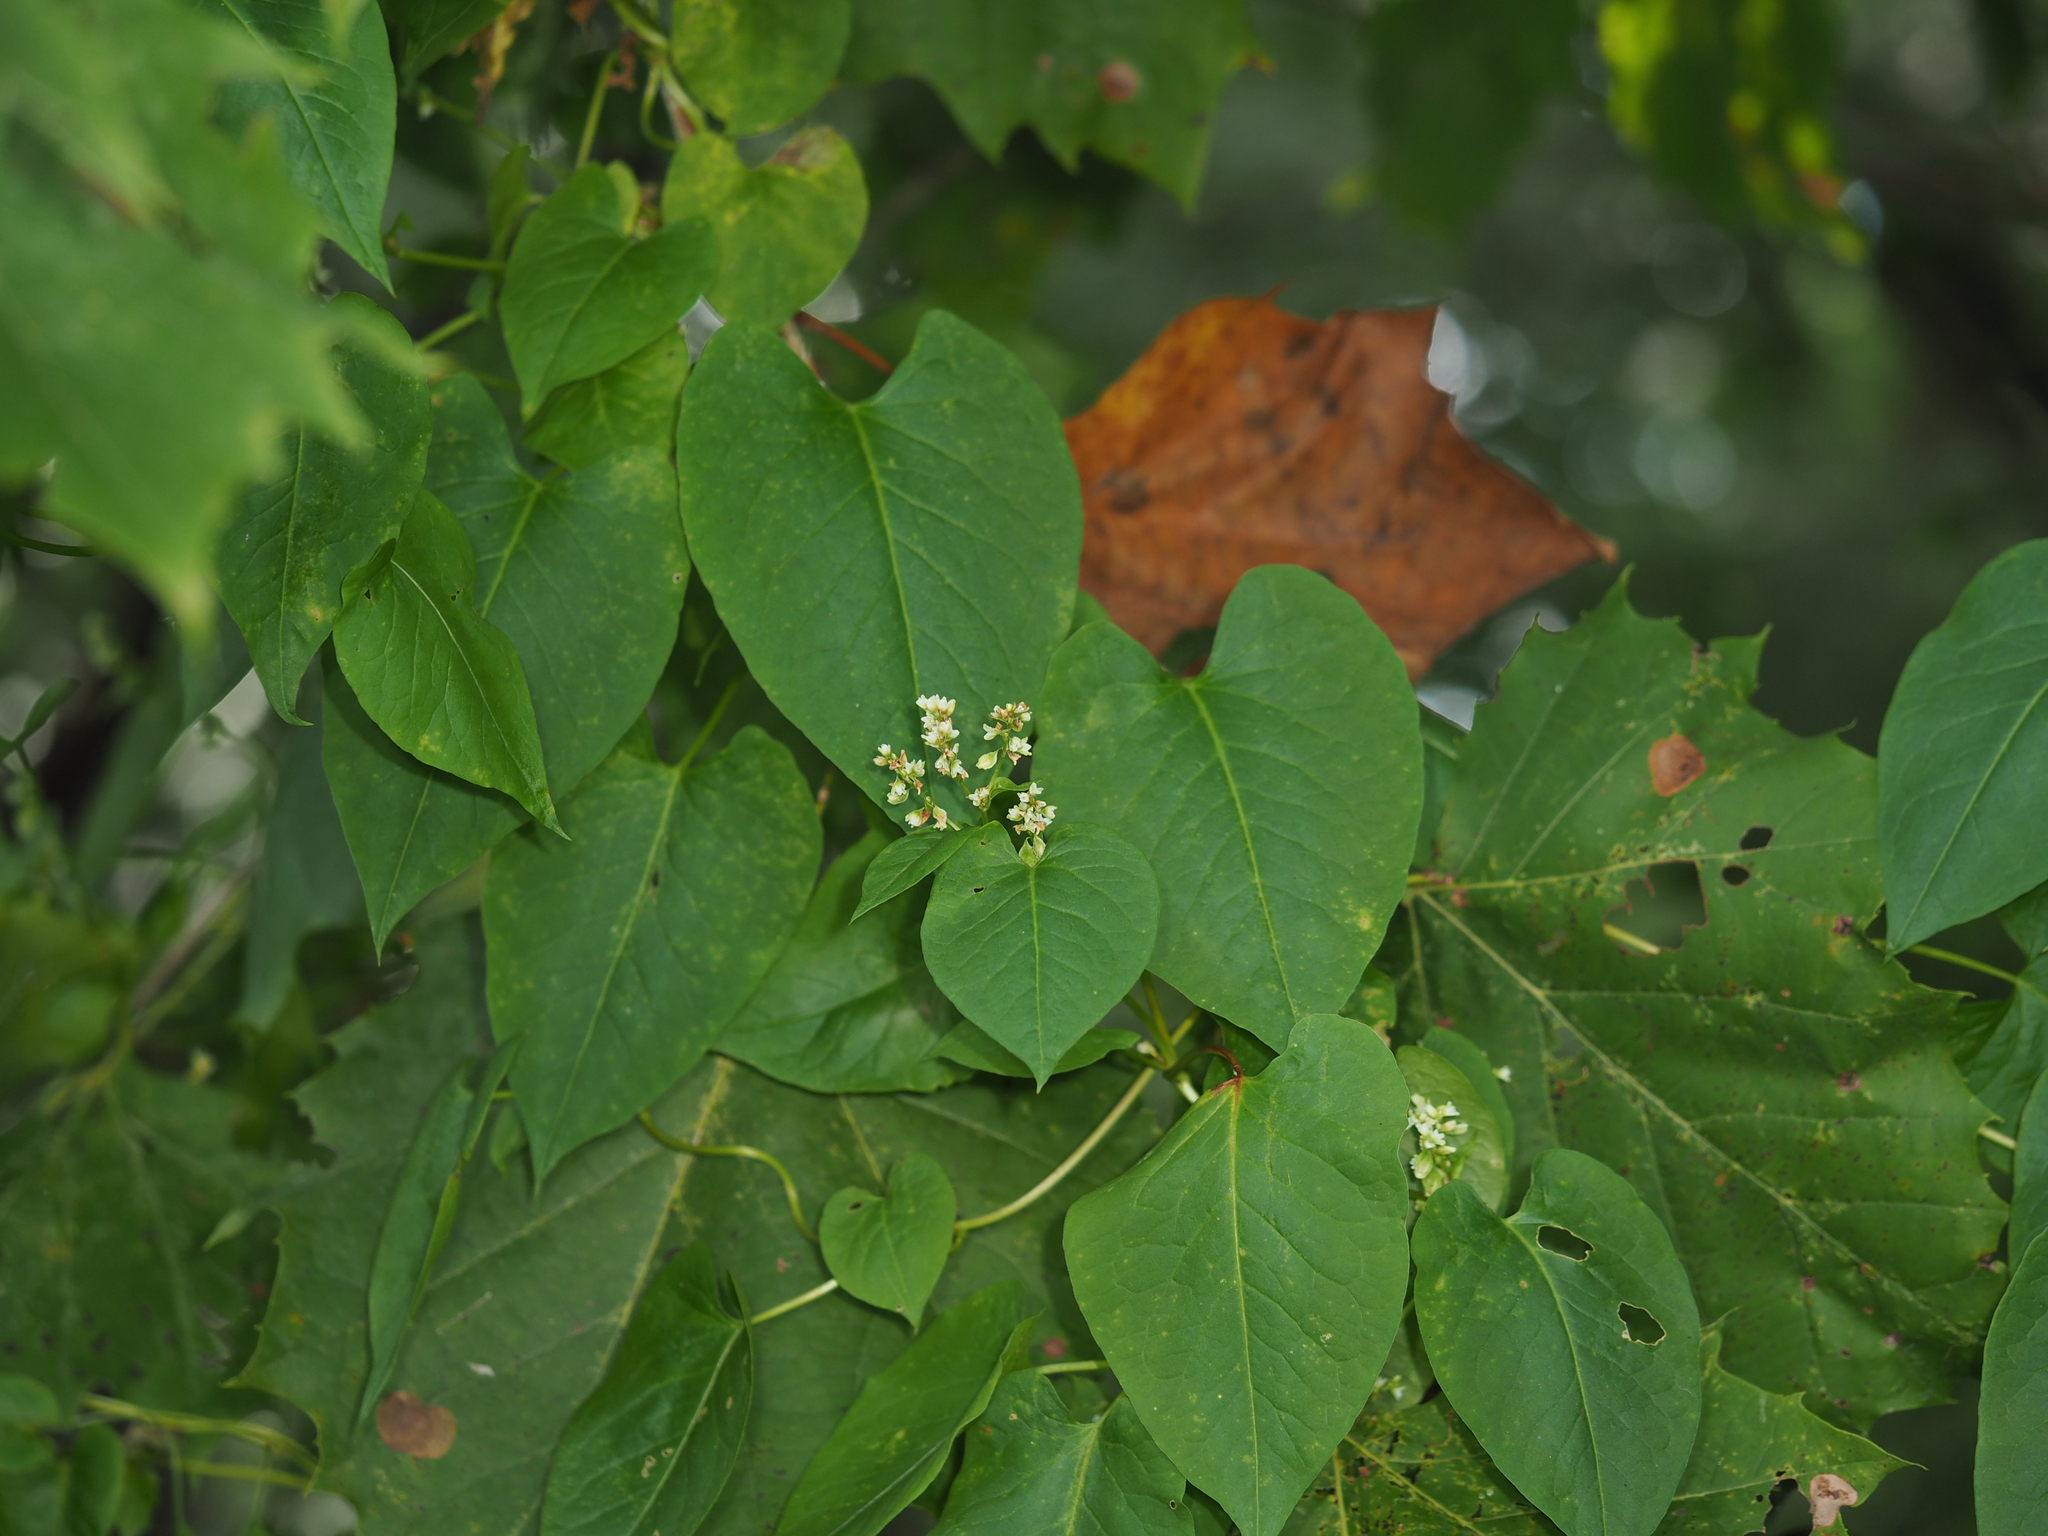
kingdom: Plantae
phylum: Tracheophyta
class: Magnoliopsida
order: Caryophyllales
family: Polygonaceae
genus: Fallopia
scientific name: Fallopia scandens
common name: Climbing false buckwheat
